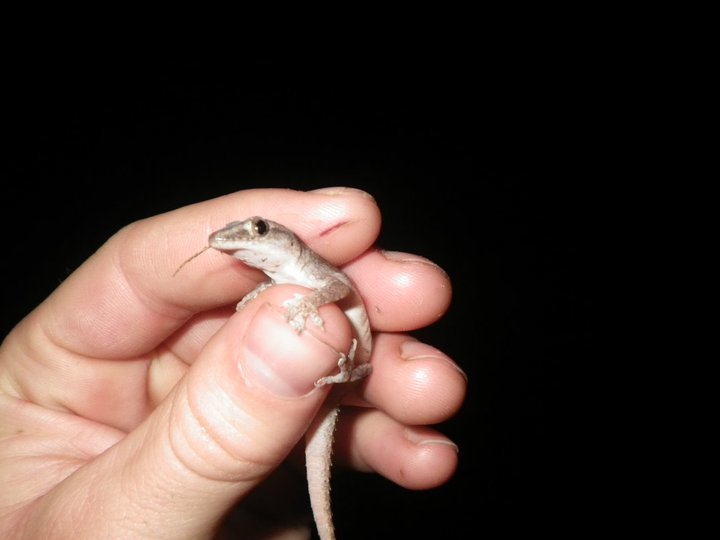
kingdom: Animalia
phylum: Chordata
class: Squamata
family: Gekkonidae
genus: Hemidactylus
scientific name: Hemidactylus frenatus
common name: Common house gecko
